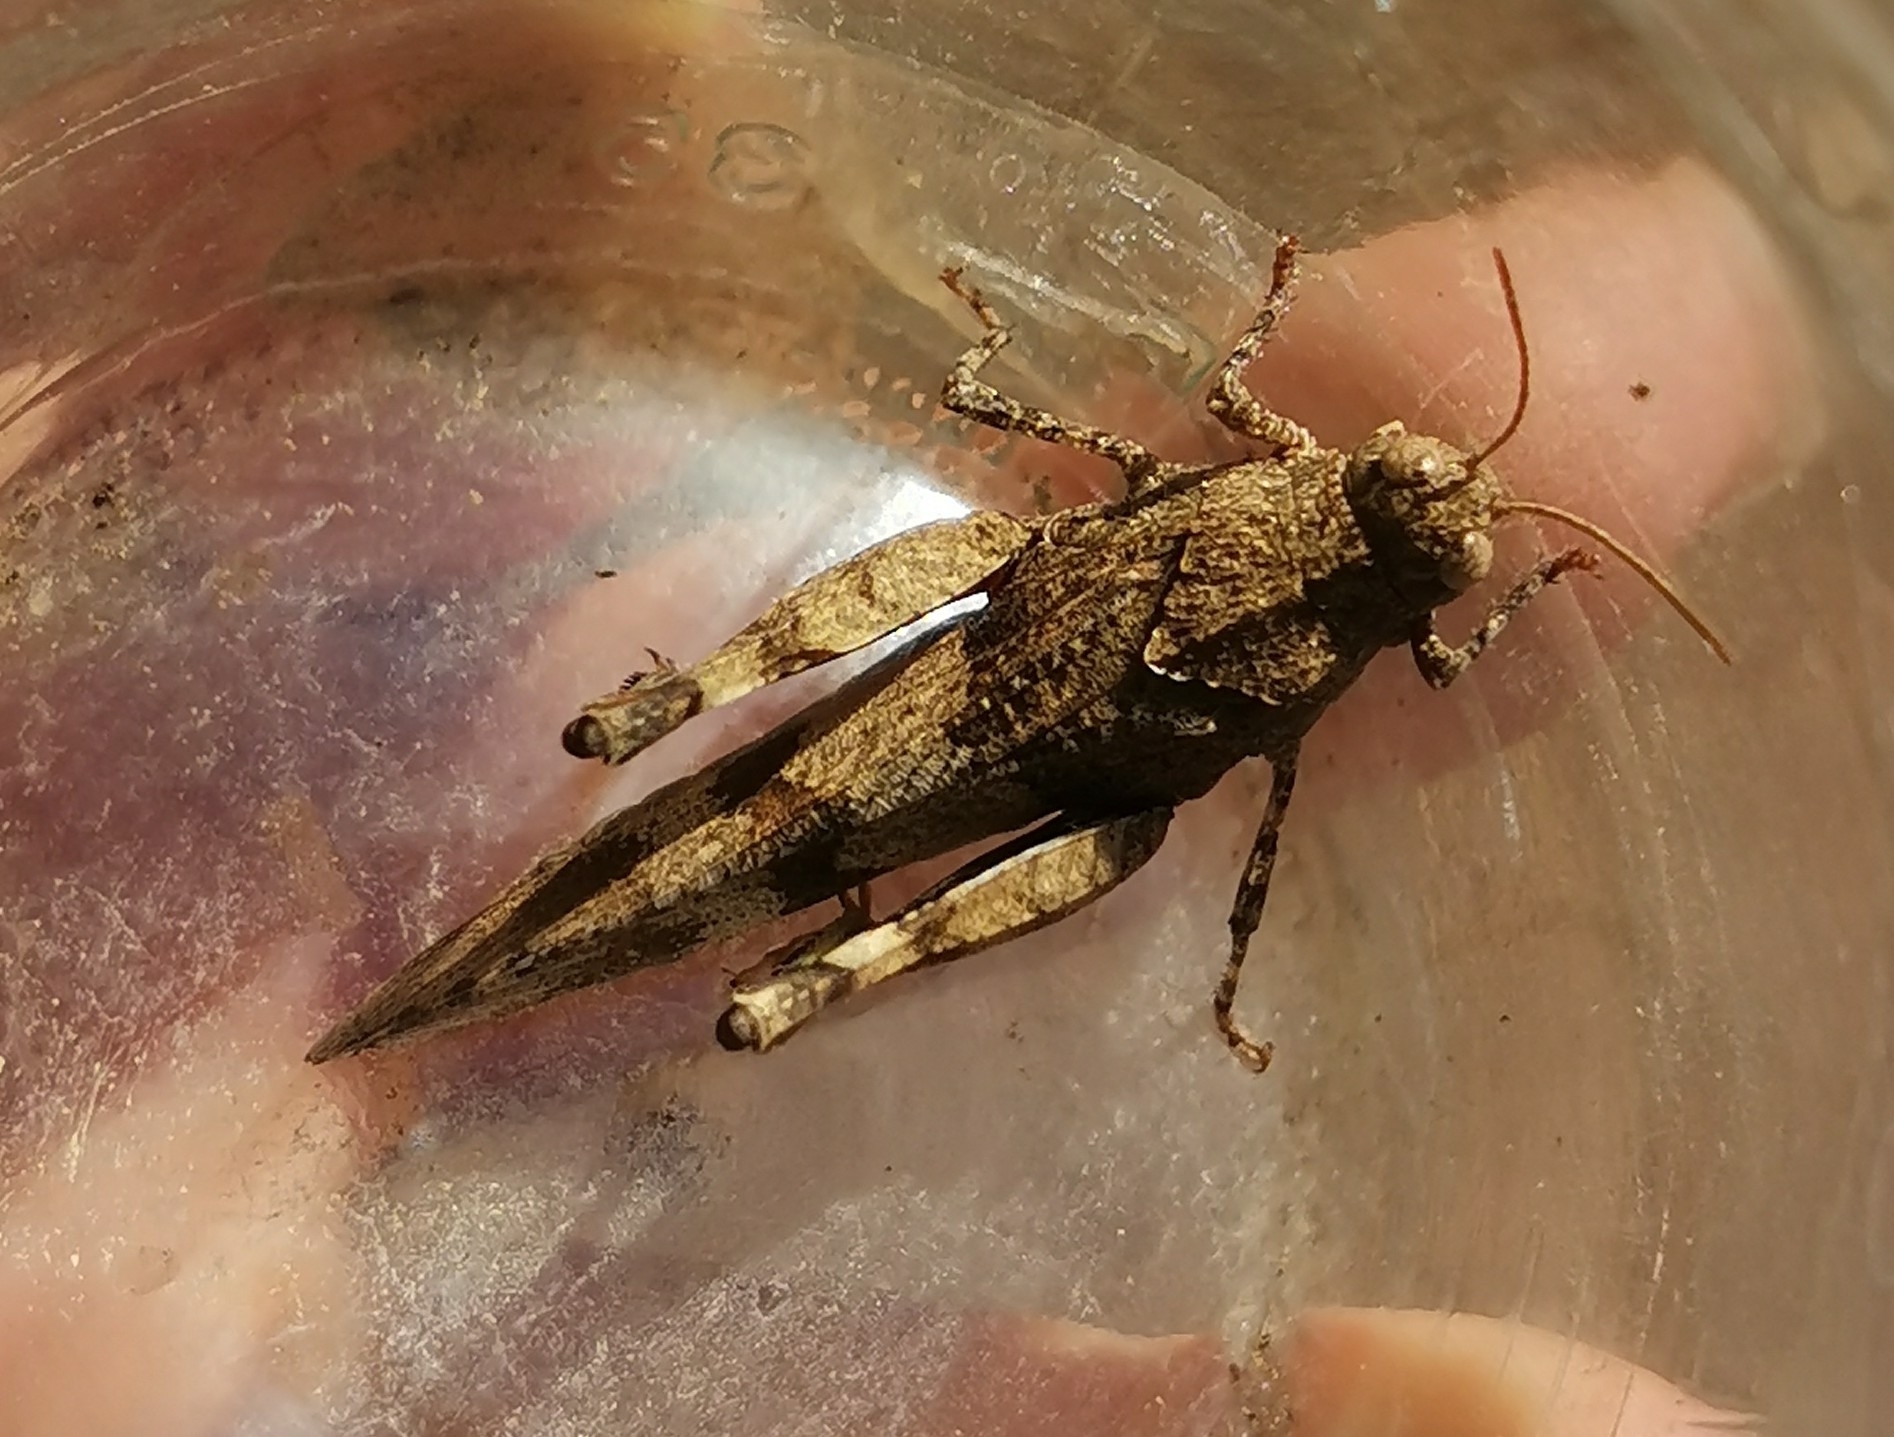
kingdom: Animalia
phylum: Arthropoda
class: Insecta
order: Orthoptera
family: Acrididae
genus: Oedipoda
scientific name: Oedipoda caerulescens
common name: Blue-winged grasshopper
